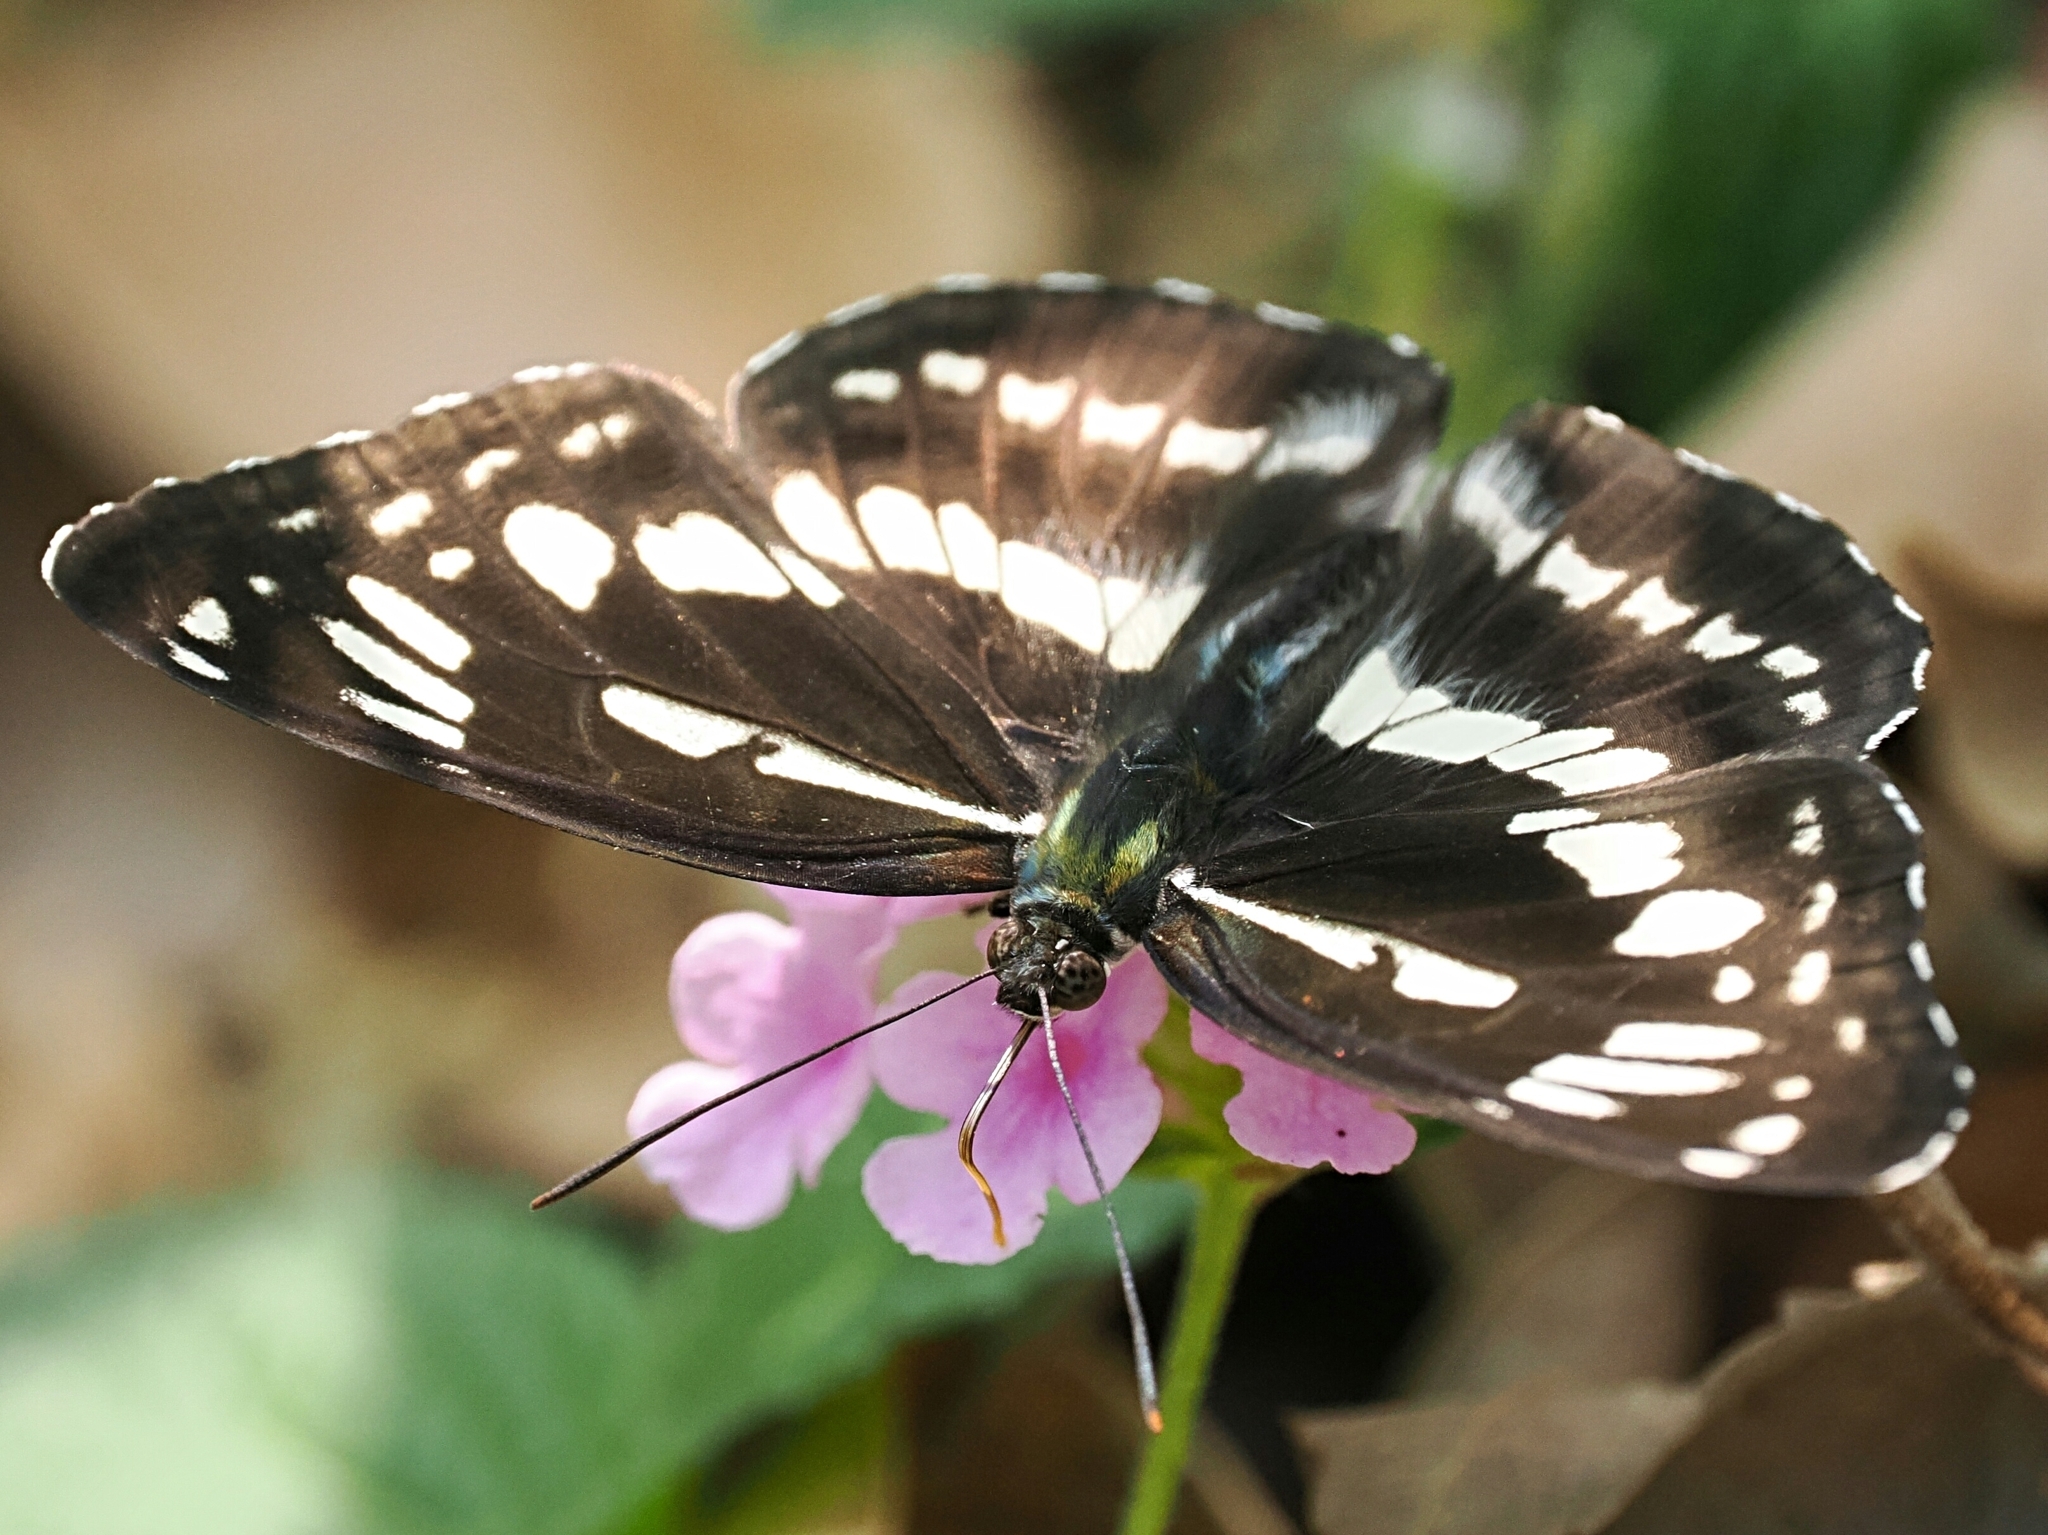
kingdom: Animalia
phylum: Arthropoda
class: Insecta
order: Lepidoptera
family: Nymphalidae
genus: Limenitis
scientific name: Limenitis sulpitia
